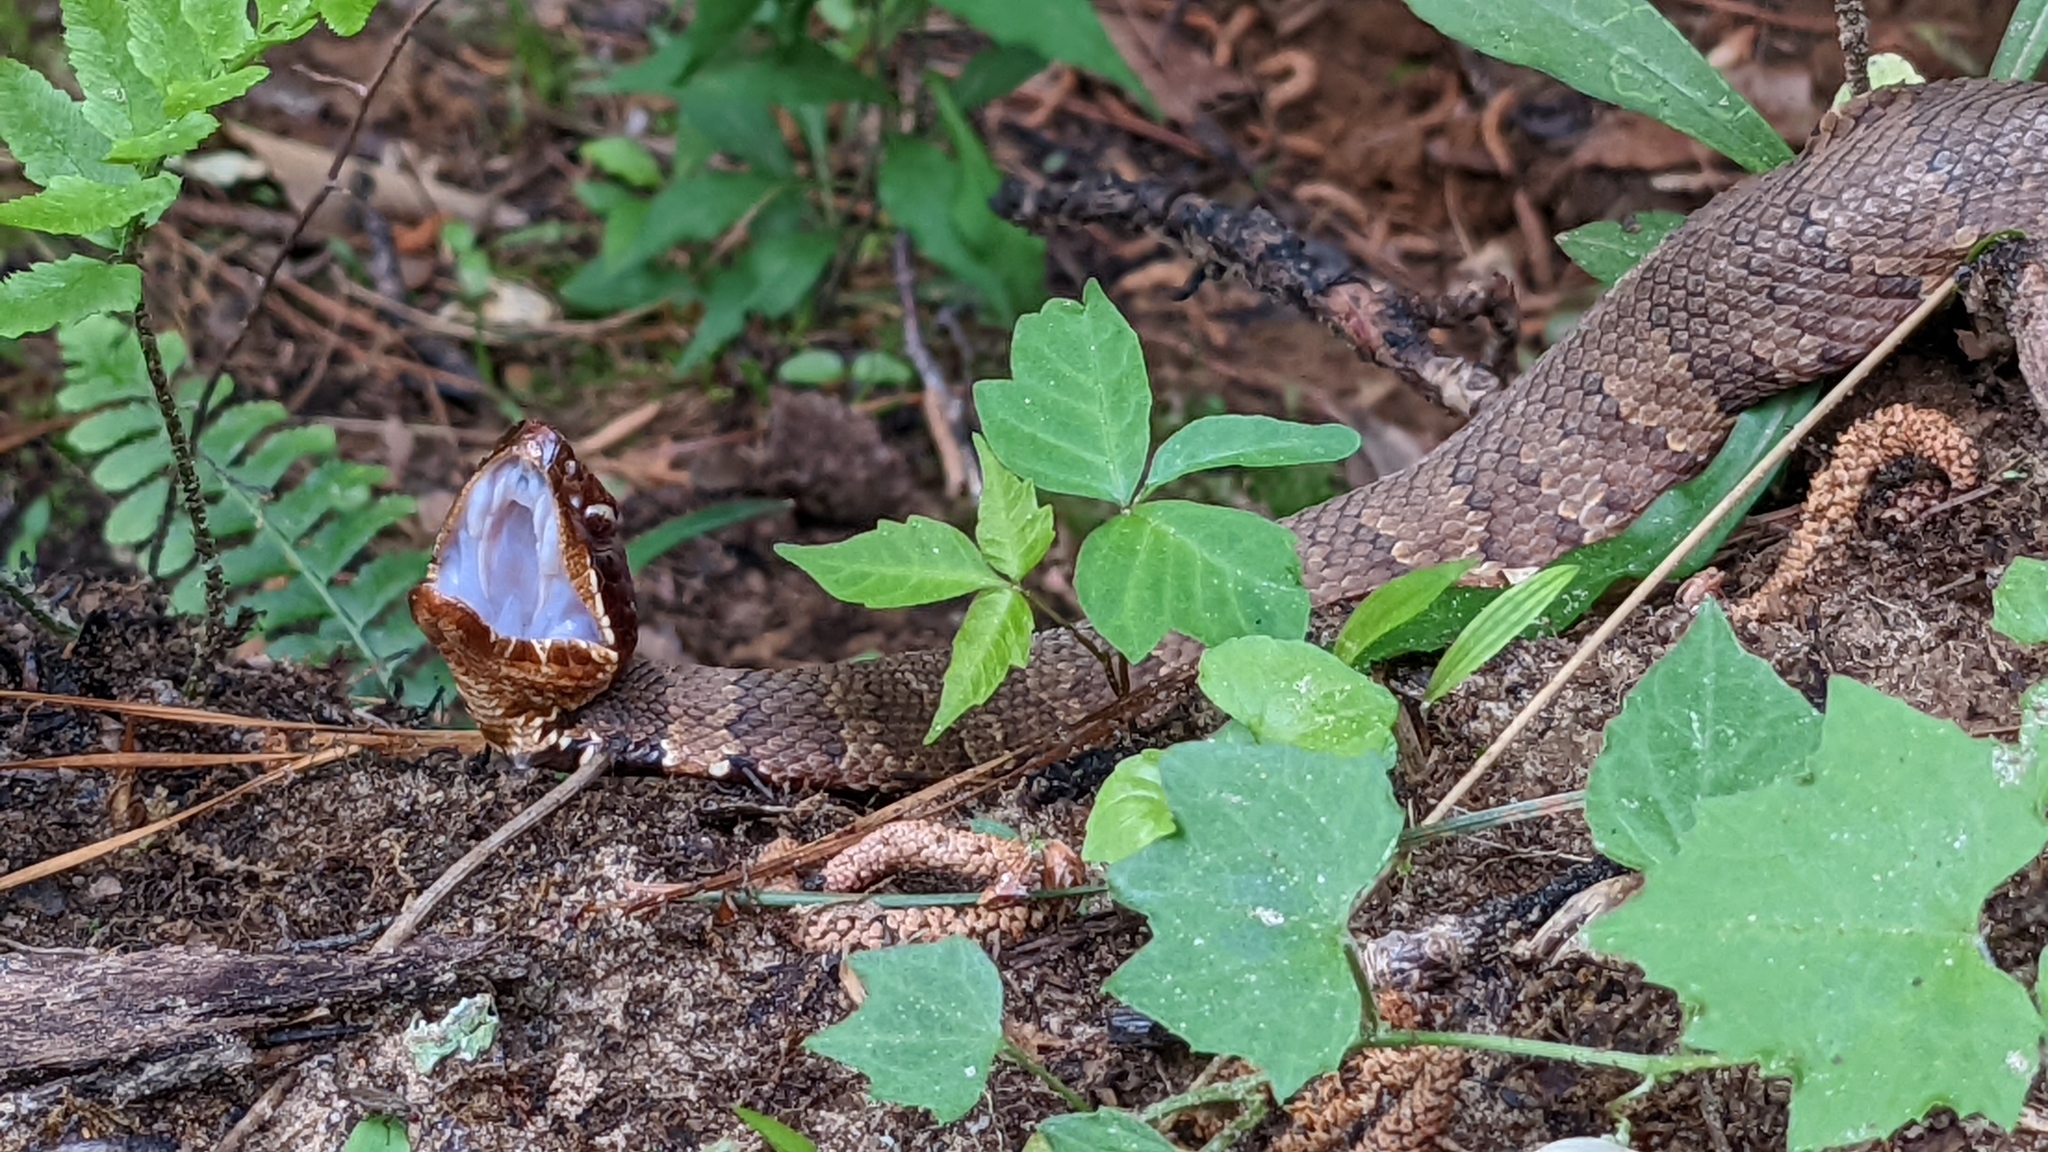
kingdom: Animalia
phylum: Chordata
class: Squamata
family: Viperidae
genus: Agkistrodon
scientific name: Agkistrodon piscivorus
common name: Cottonmouth
